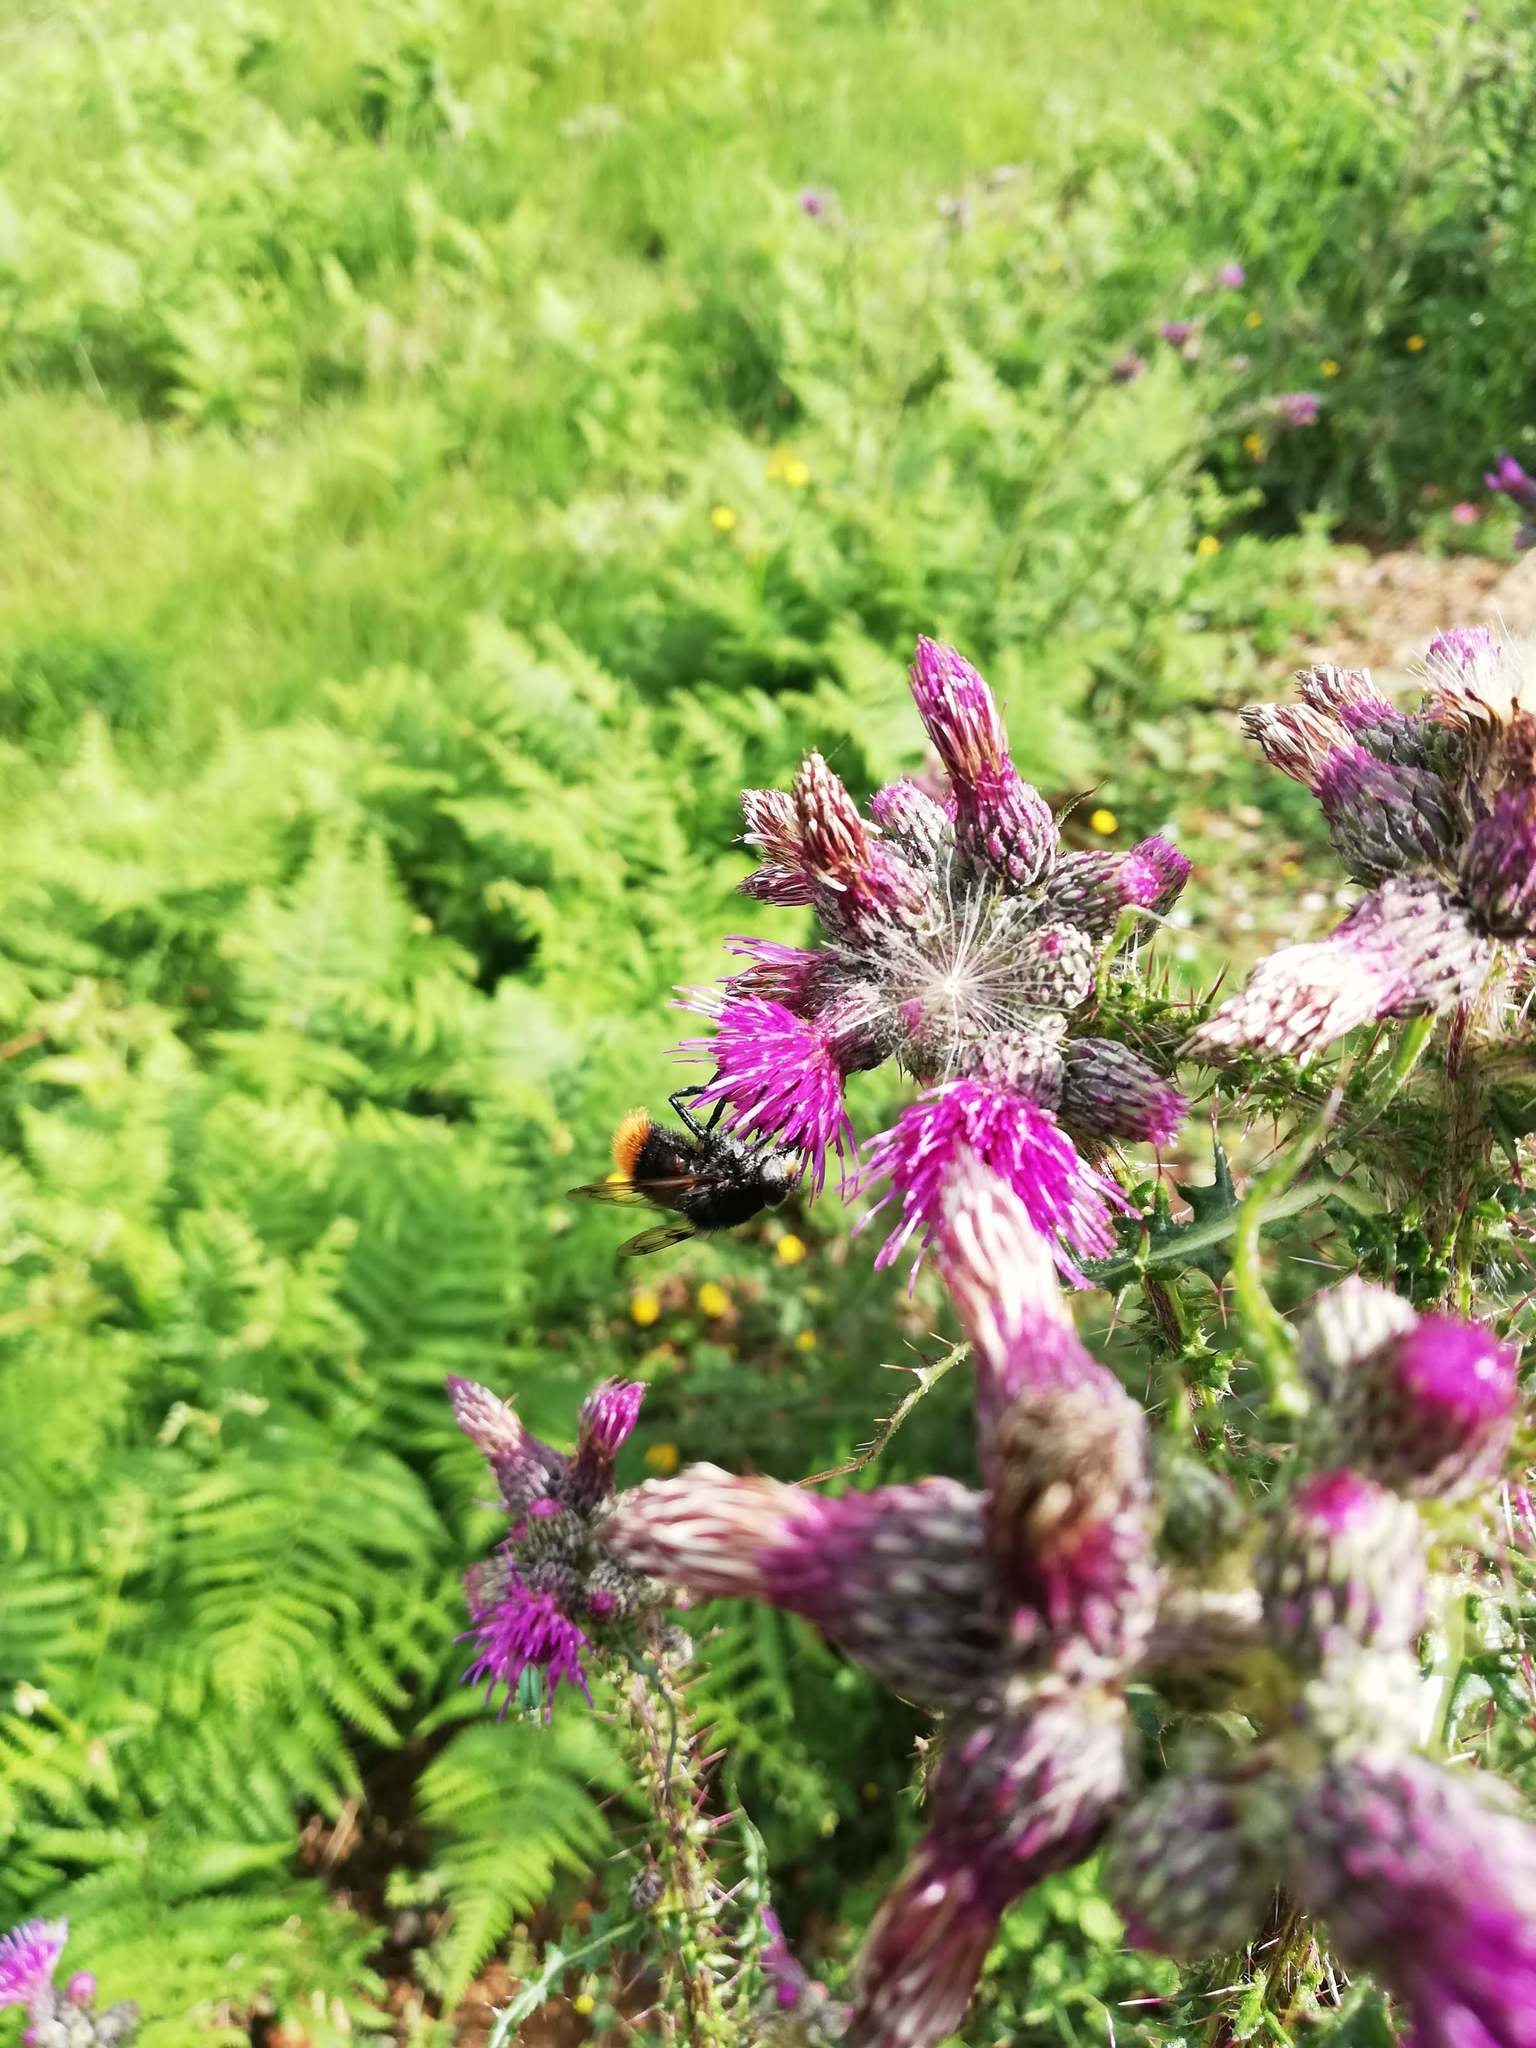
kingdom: Animalia
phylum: Arthropoda
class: Insecta
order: Lepidoptera
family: Nymphalidae
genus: Maniola
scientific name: Maniola jurtina
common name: Meadow brown
